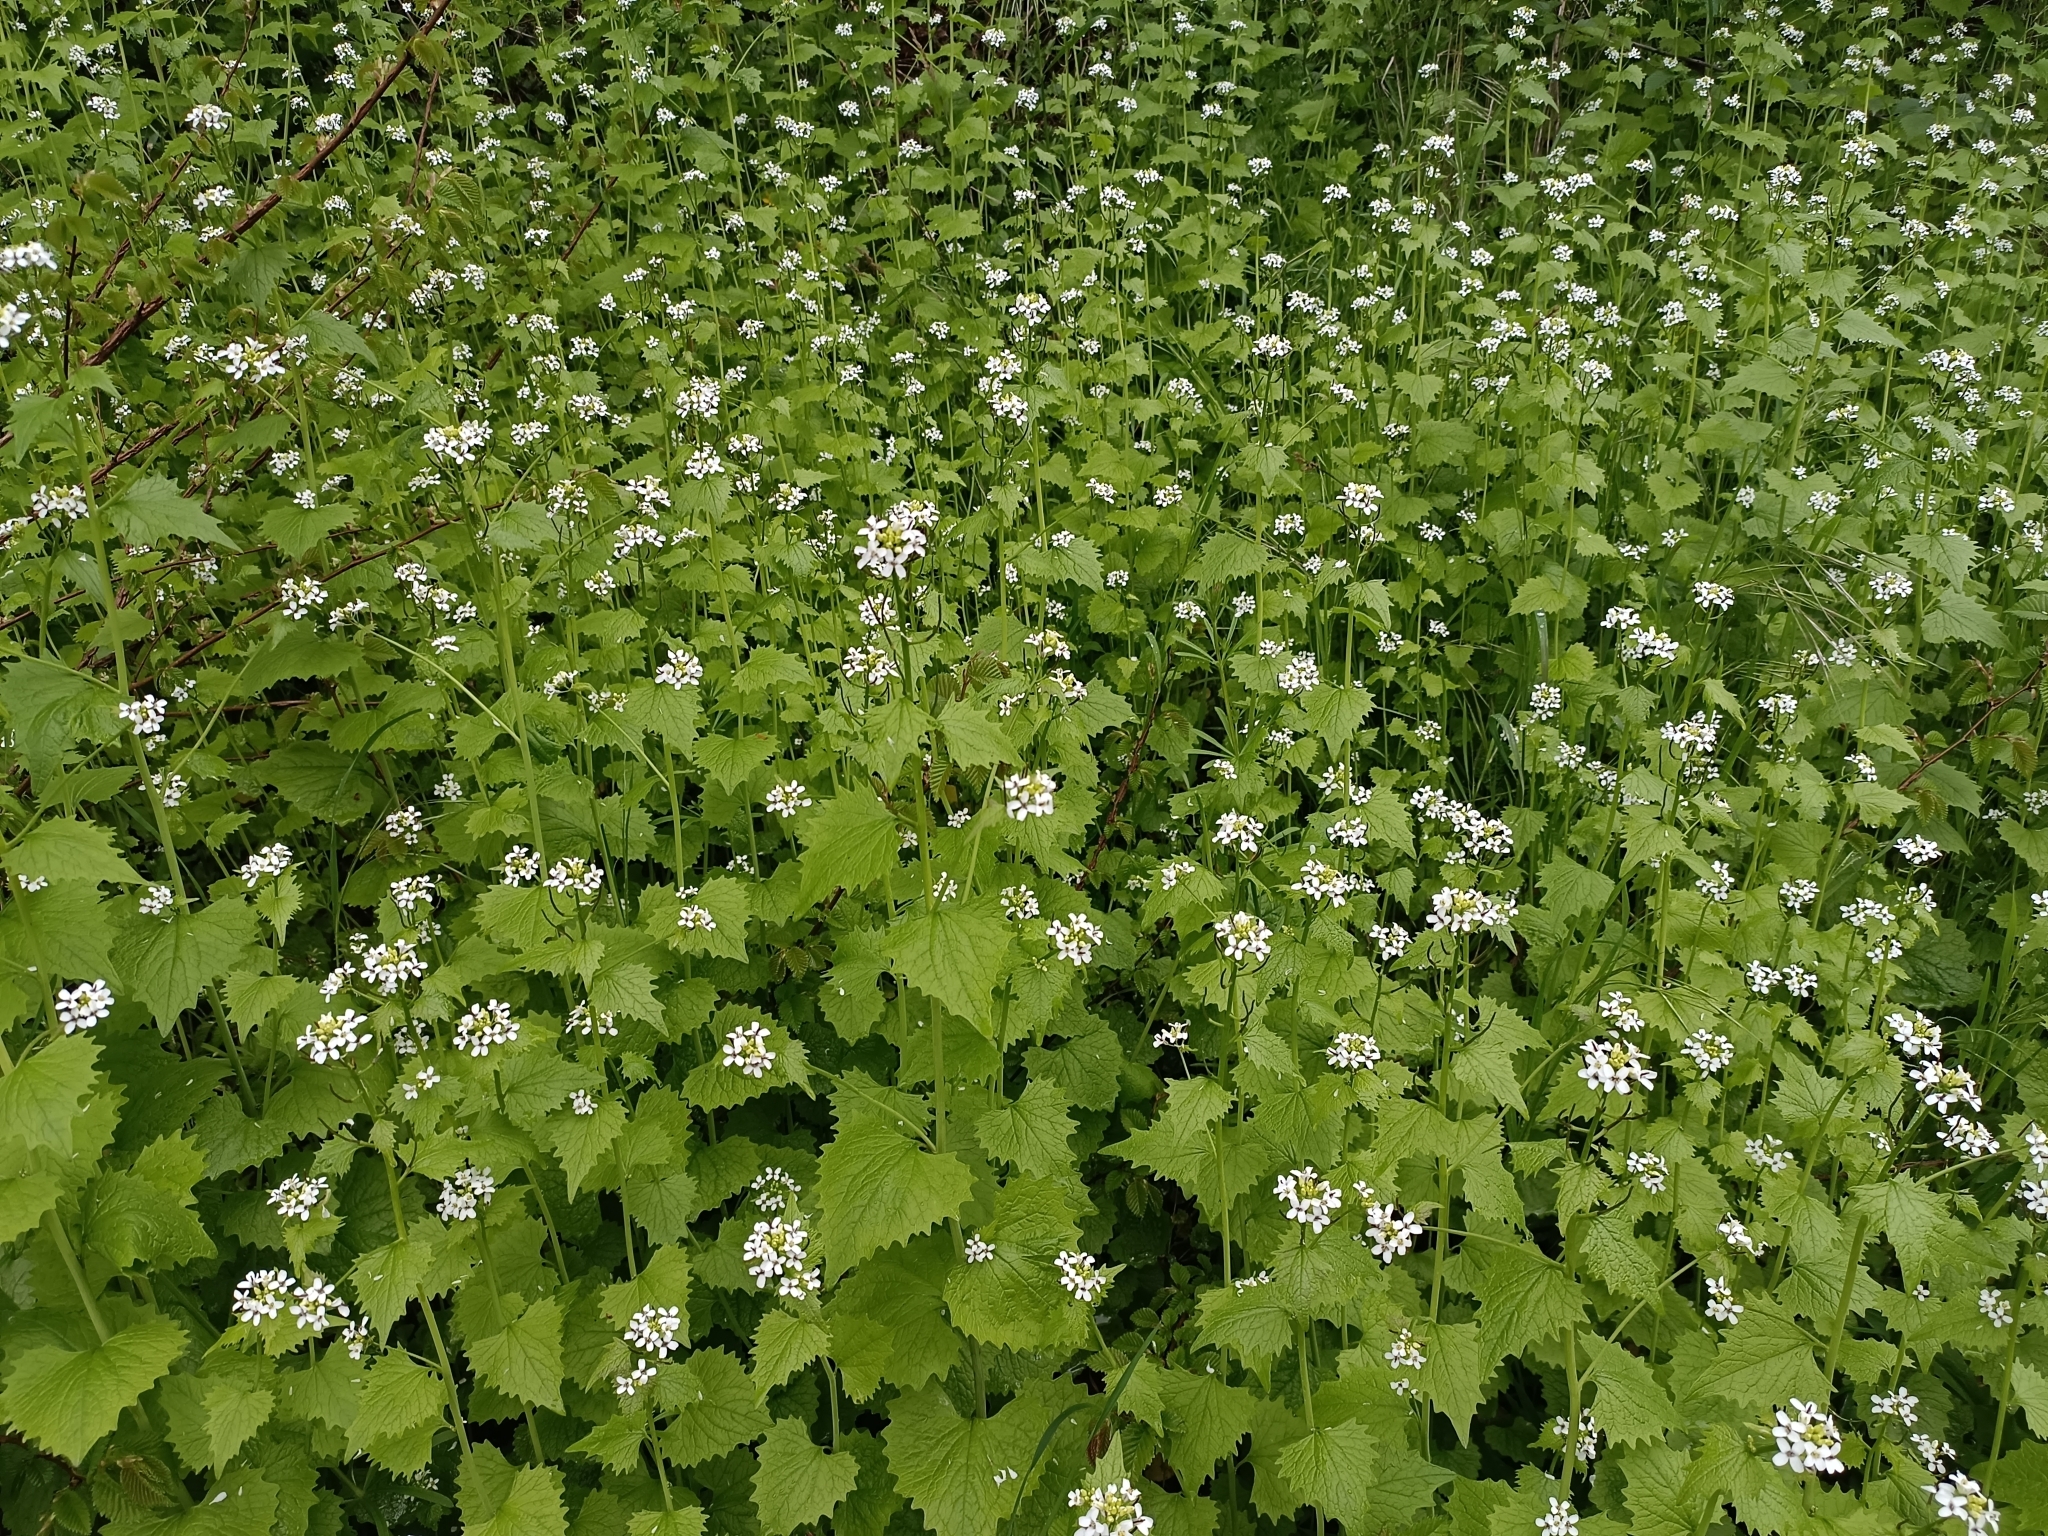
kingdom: Plantae
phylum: Tracheophyta
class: Magnoliopsida
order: Brassicales
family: Brassicaceae
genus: Alliaria
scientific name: Alliaria petiolata
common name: Garlic mustard
